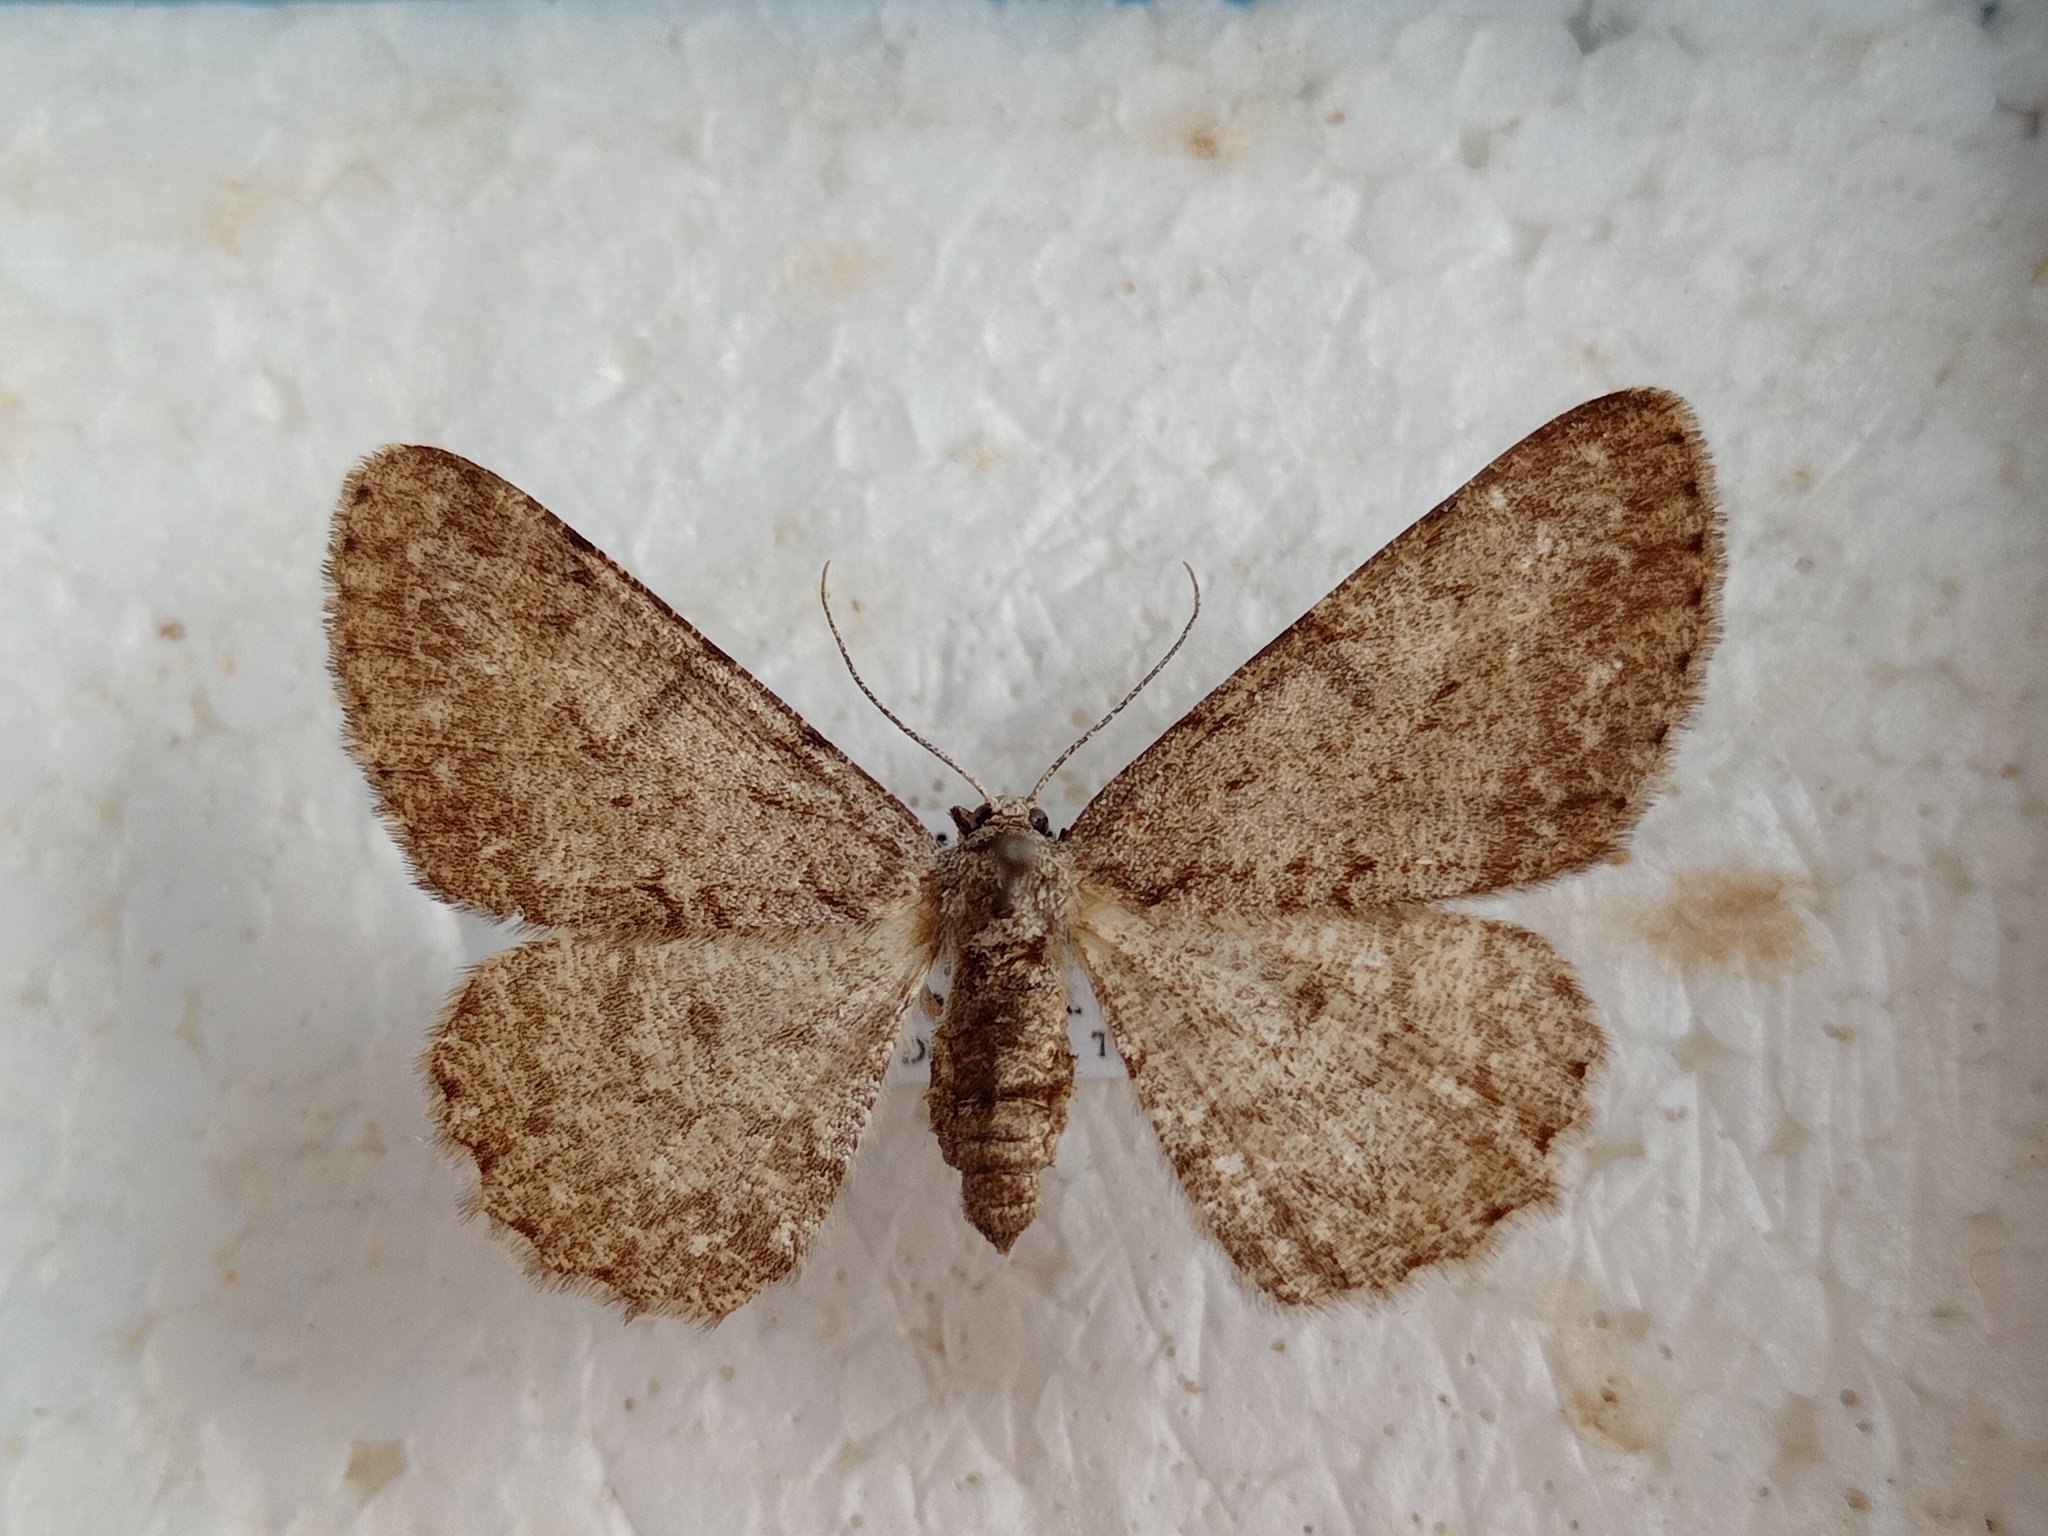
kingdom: Animalia
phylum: Arthropoda
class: Insecta
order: Lepidoptera
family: Geometridae
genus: Hypomecis
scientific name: Hypomecis punctinalis
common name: Pale oak beauty
